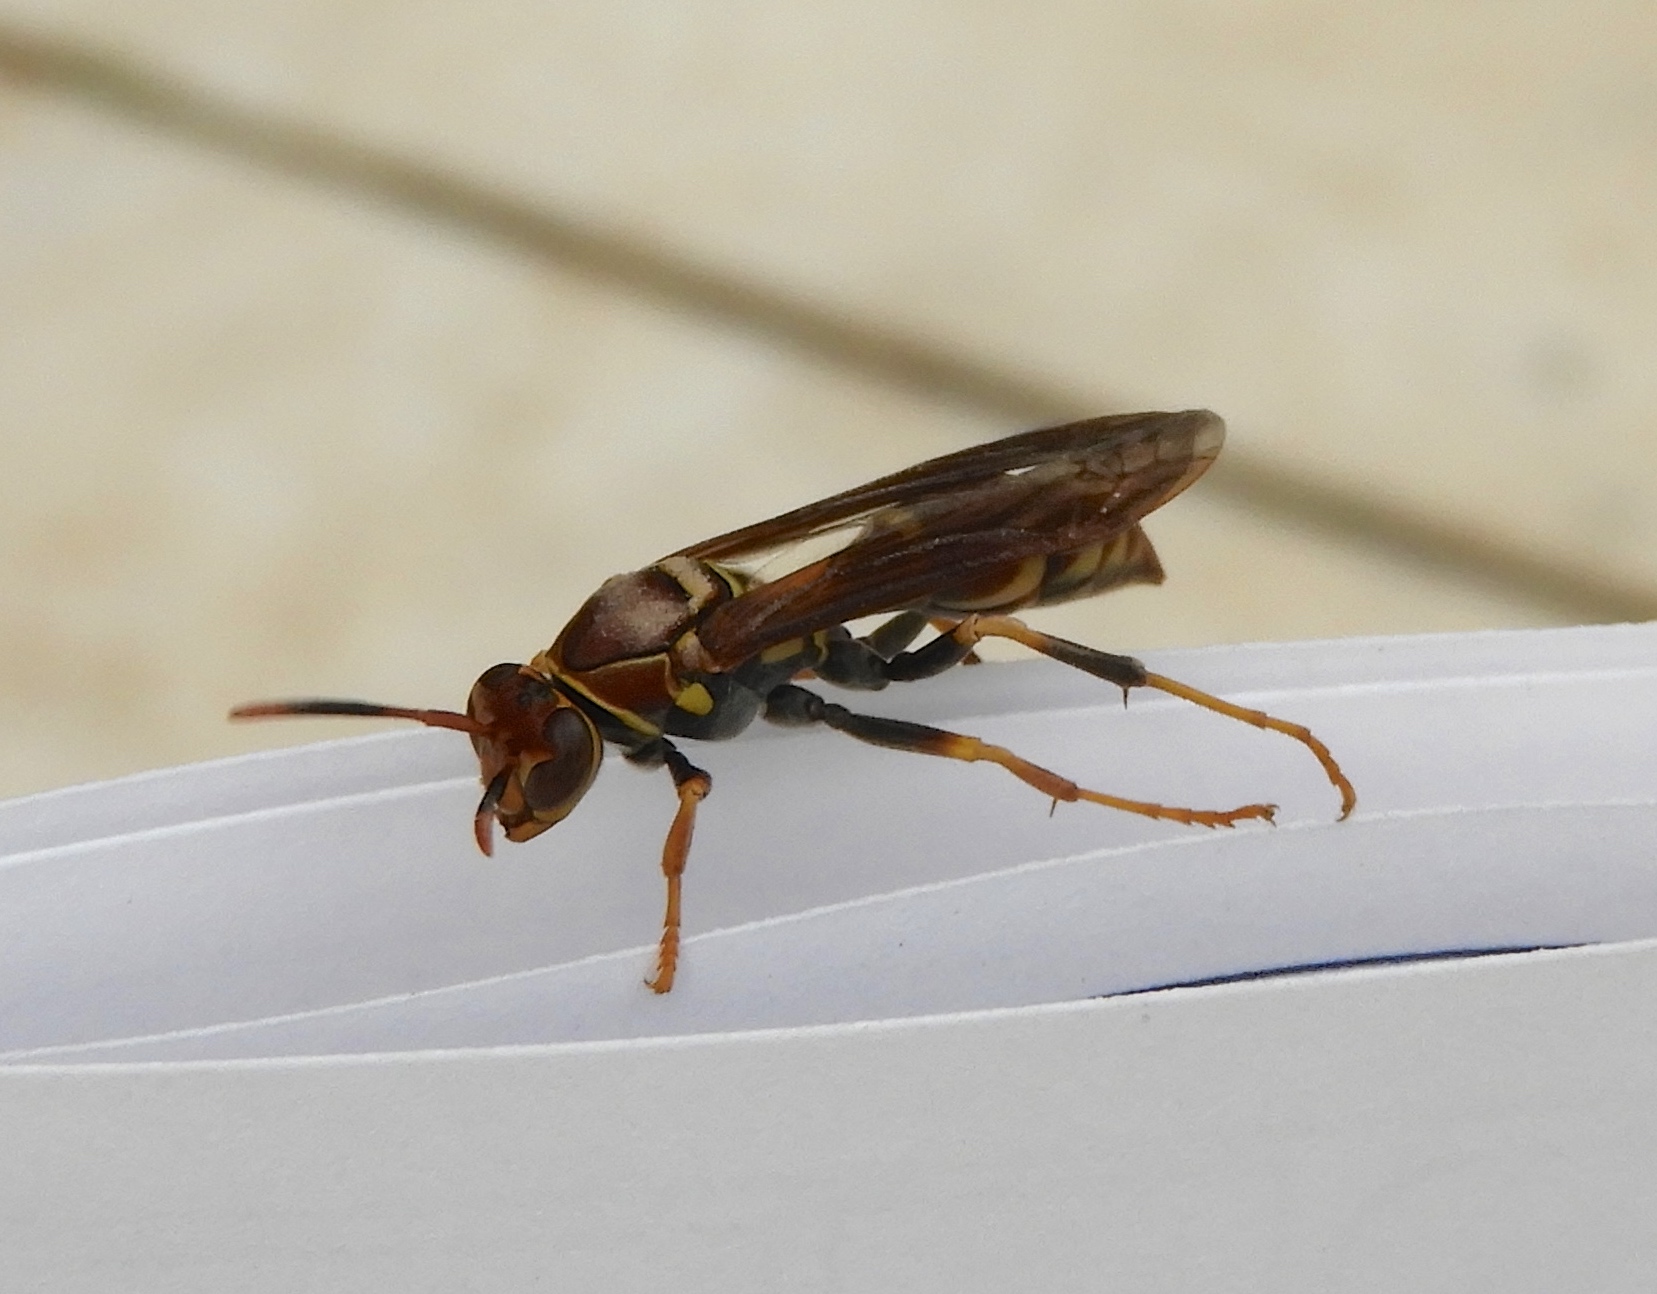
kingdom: Animalia
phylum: Arthropoda
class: Insecta
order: Hymenoptera
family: Pompilidae
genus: Aphanilopterus
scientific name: Aphanilopterus
